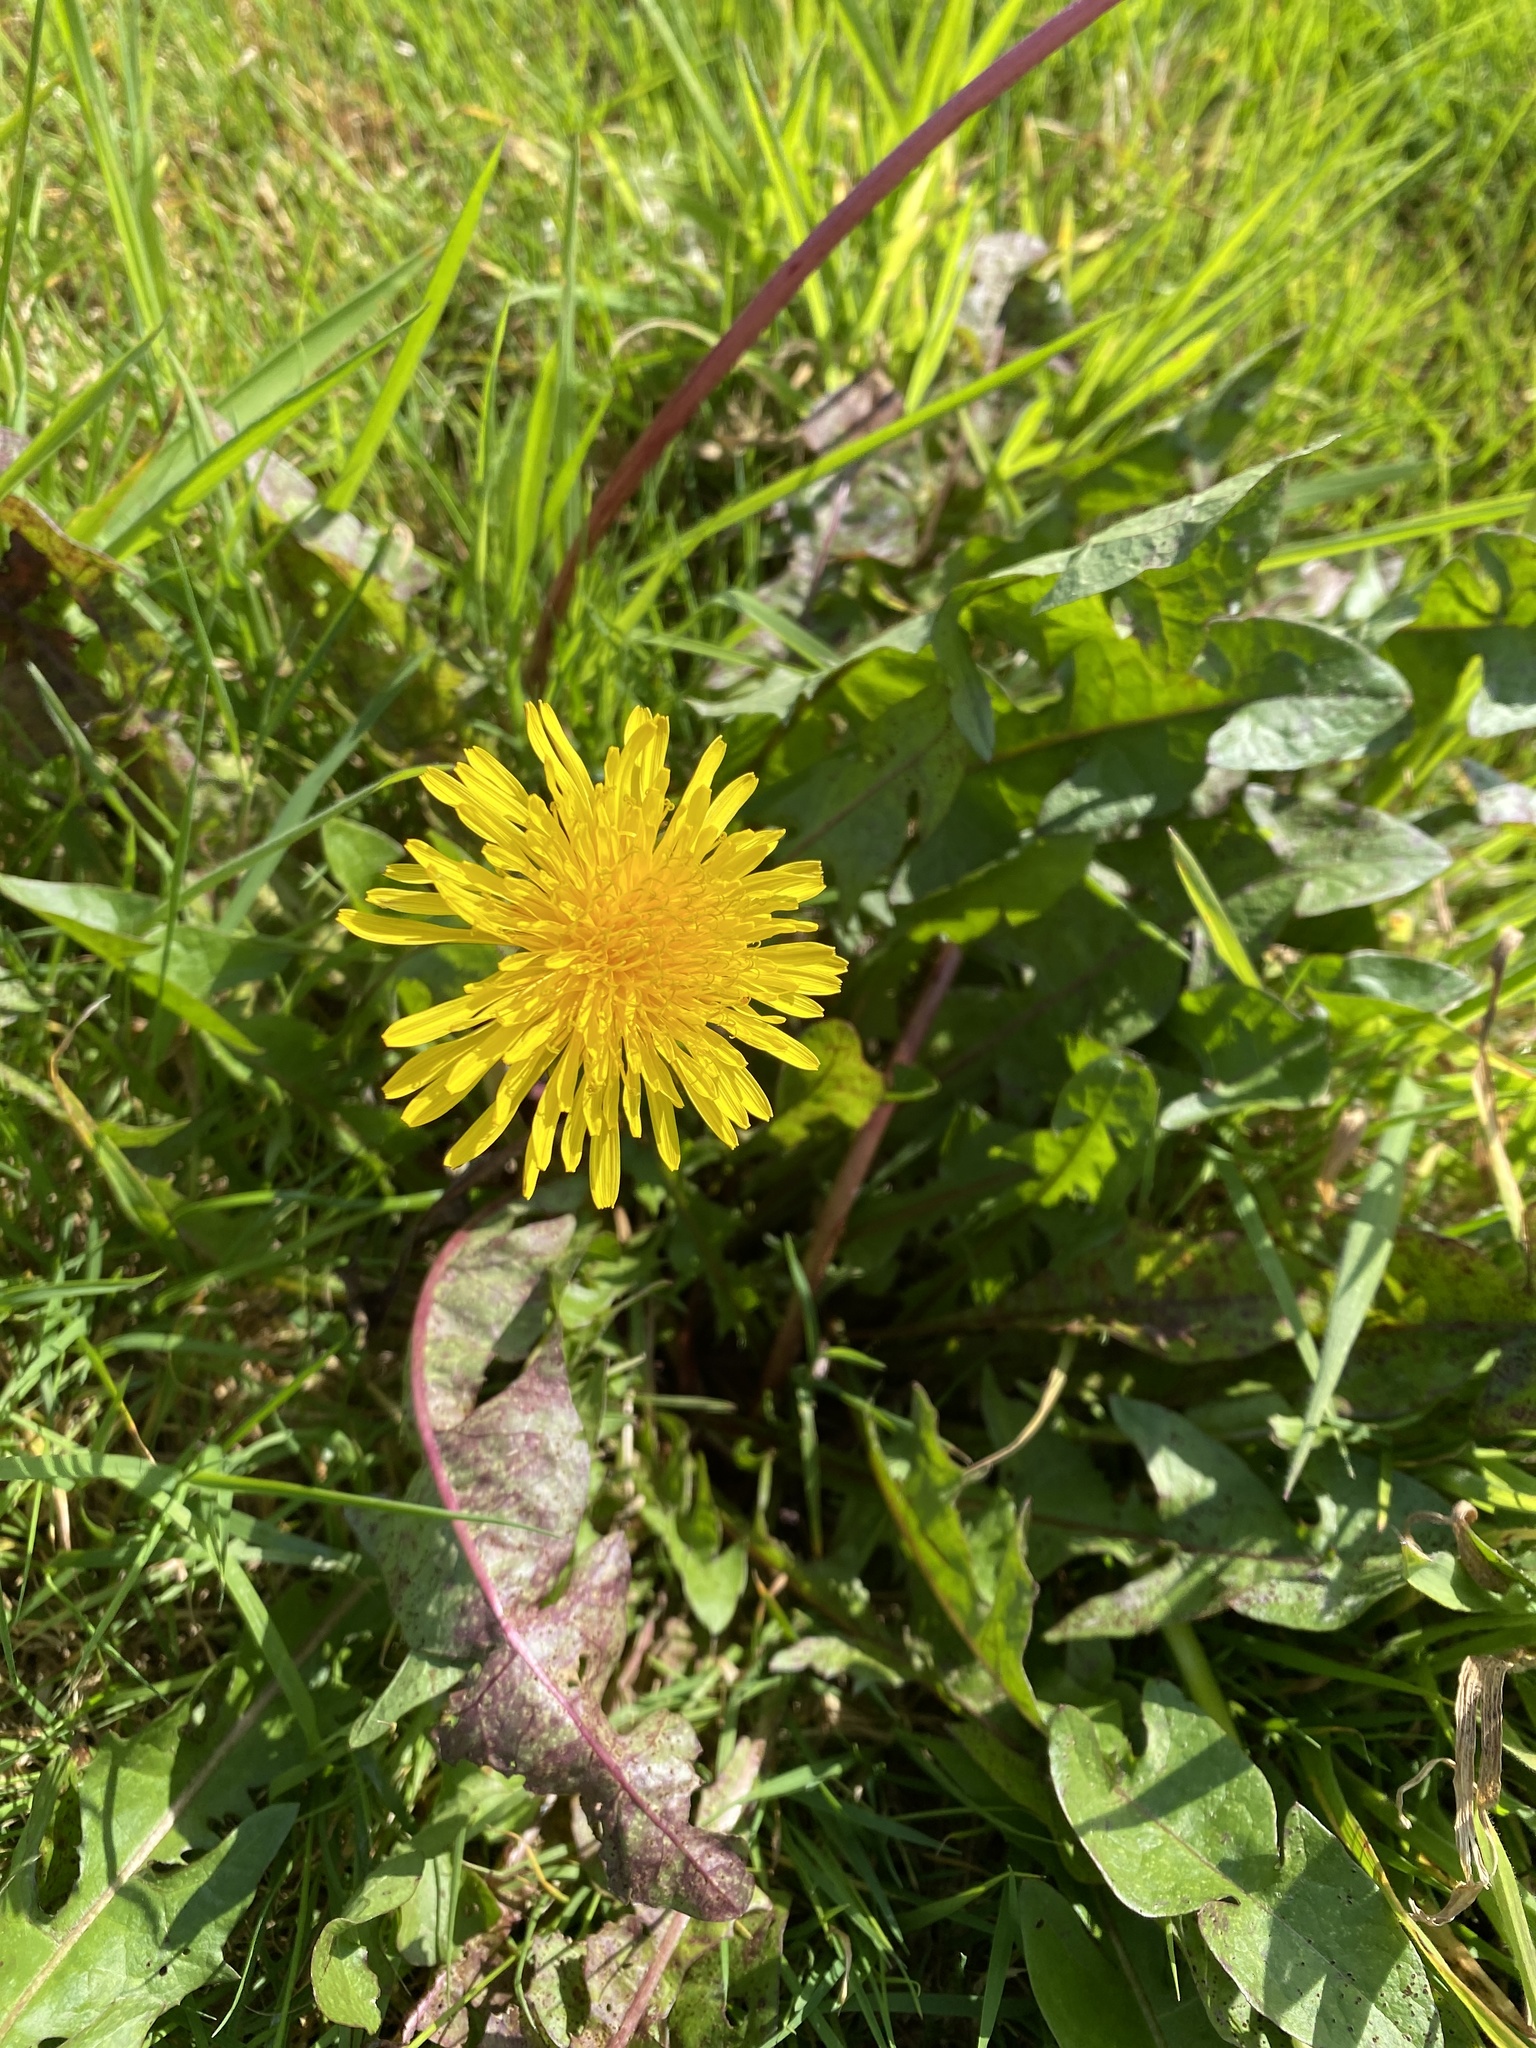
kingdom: Plantae
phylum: Tracheophyta
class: Magnoliopsida
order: Asterales
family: Asteraceae
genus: Taraxacum
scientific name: Taraxacum officinale
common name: Common dandelion
